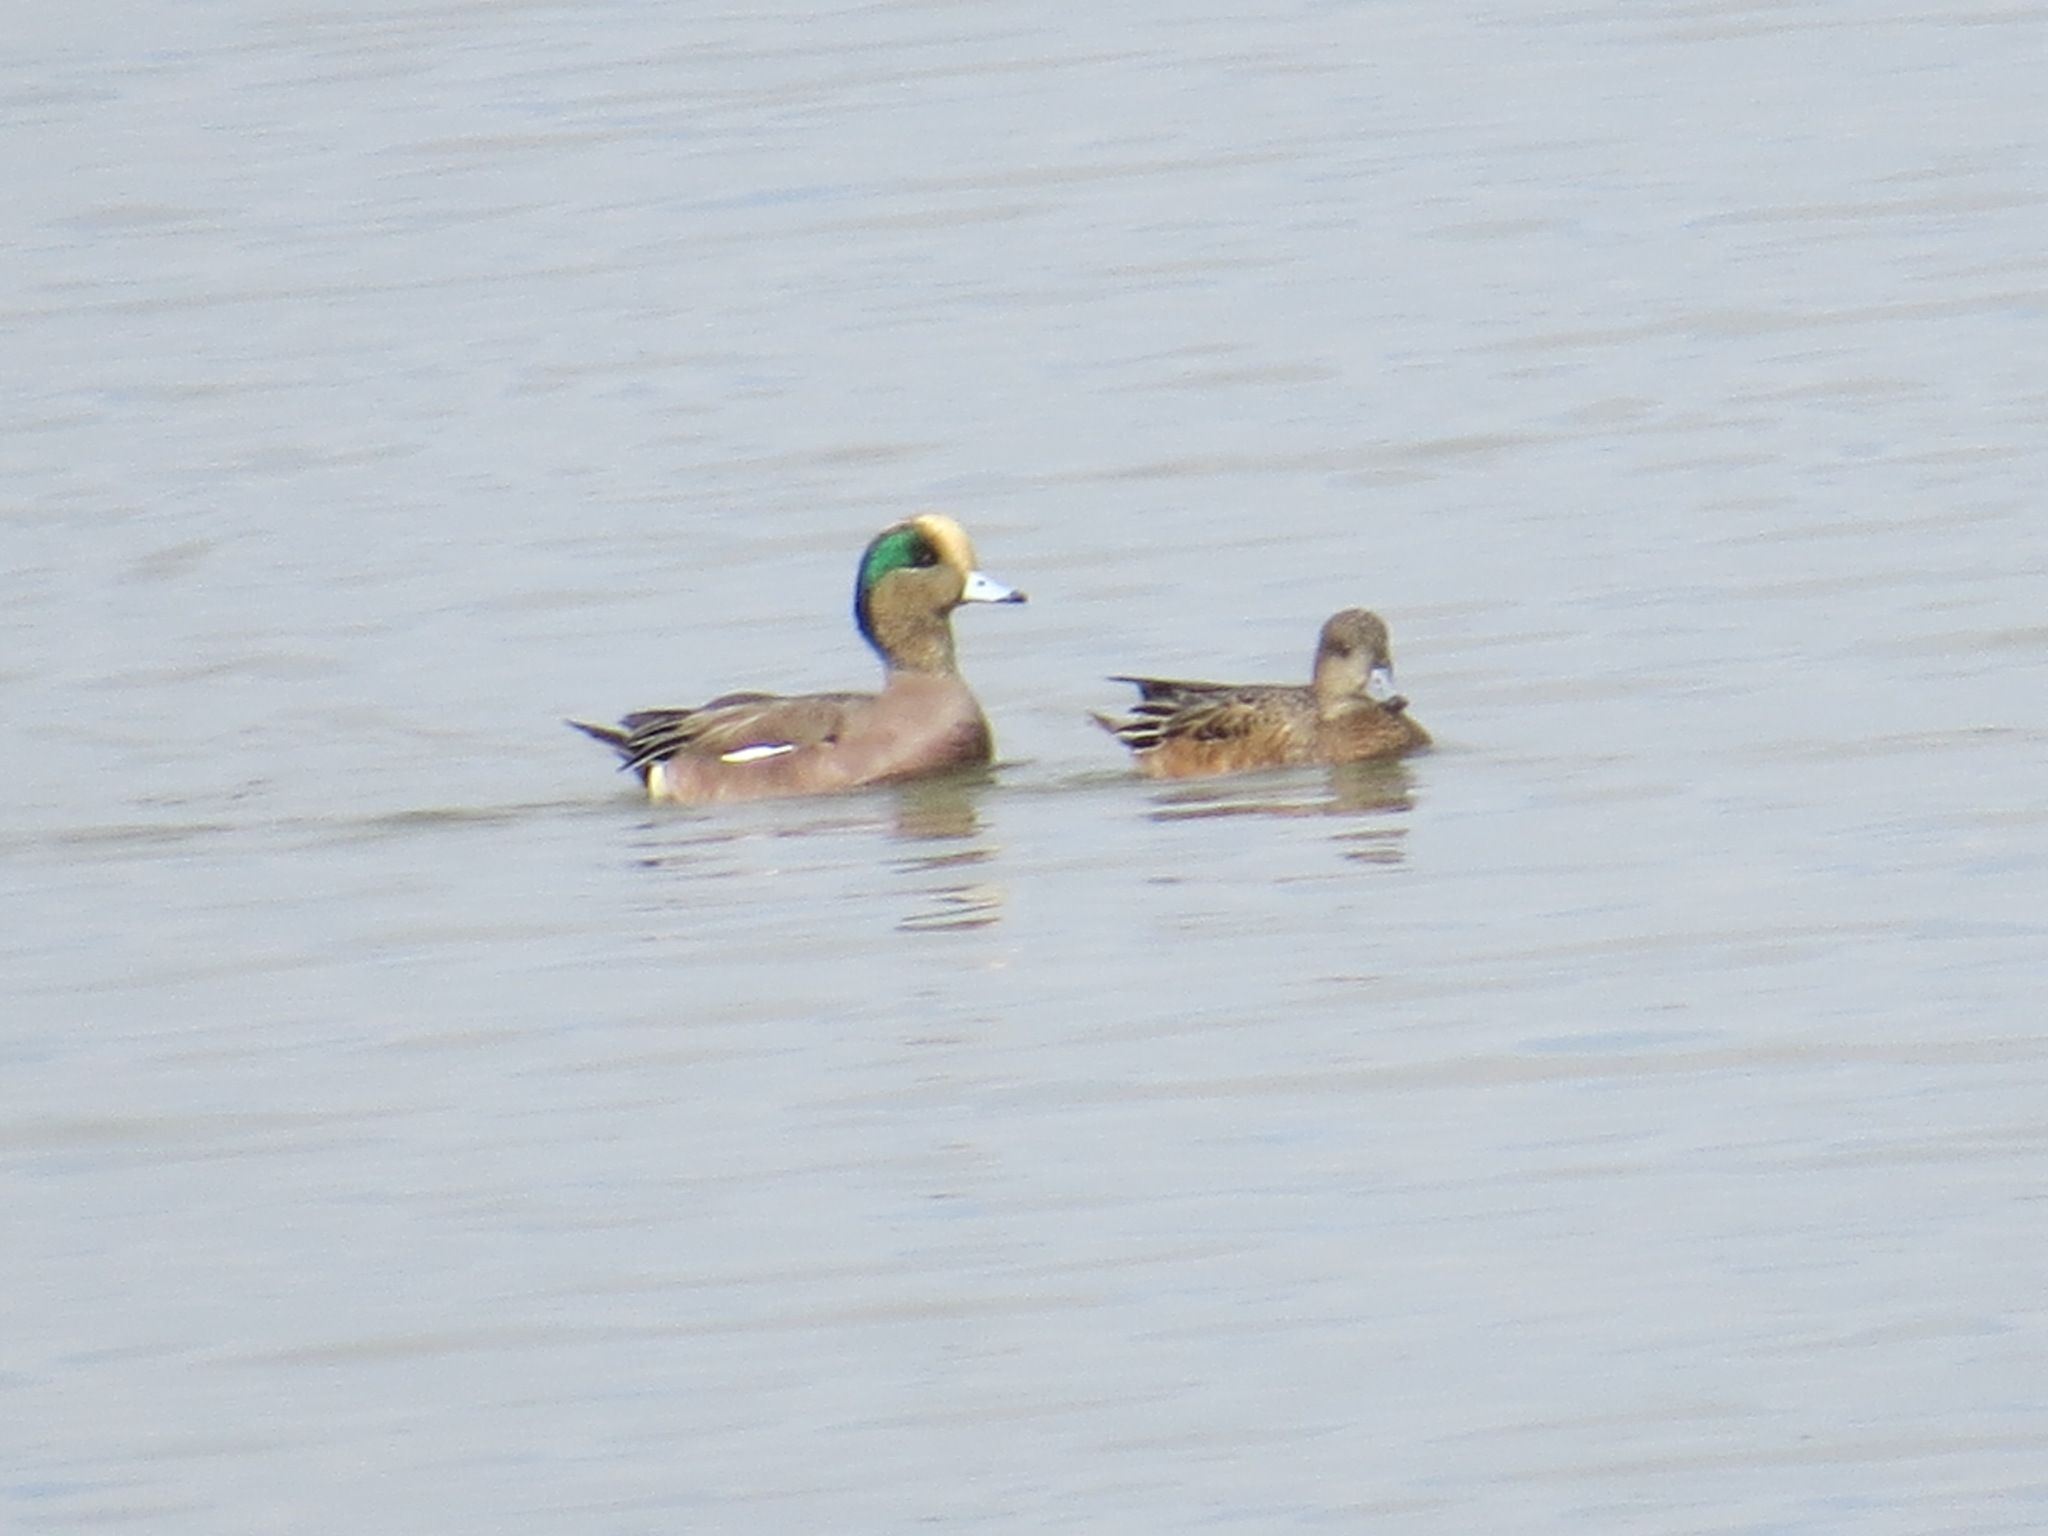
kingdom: Animalia
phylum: Chordata
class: Aves
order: Anseriformes
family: Anatidae
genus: Mareca
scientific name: Mareca americana
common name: American wigeon
